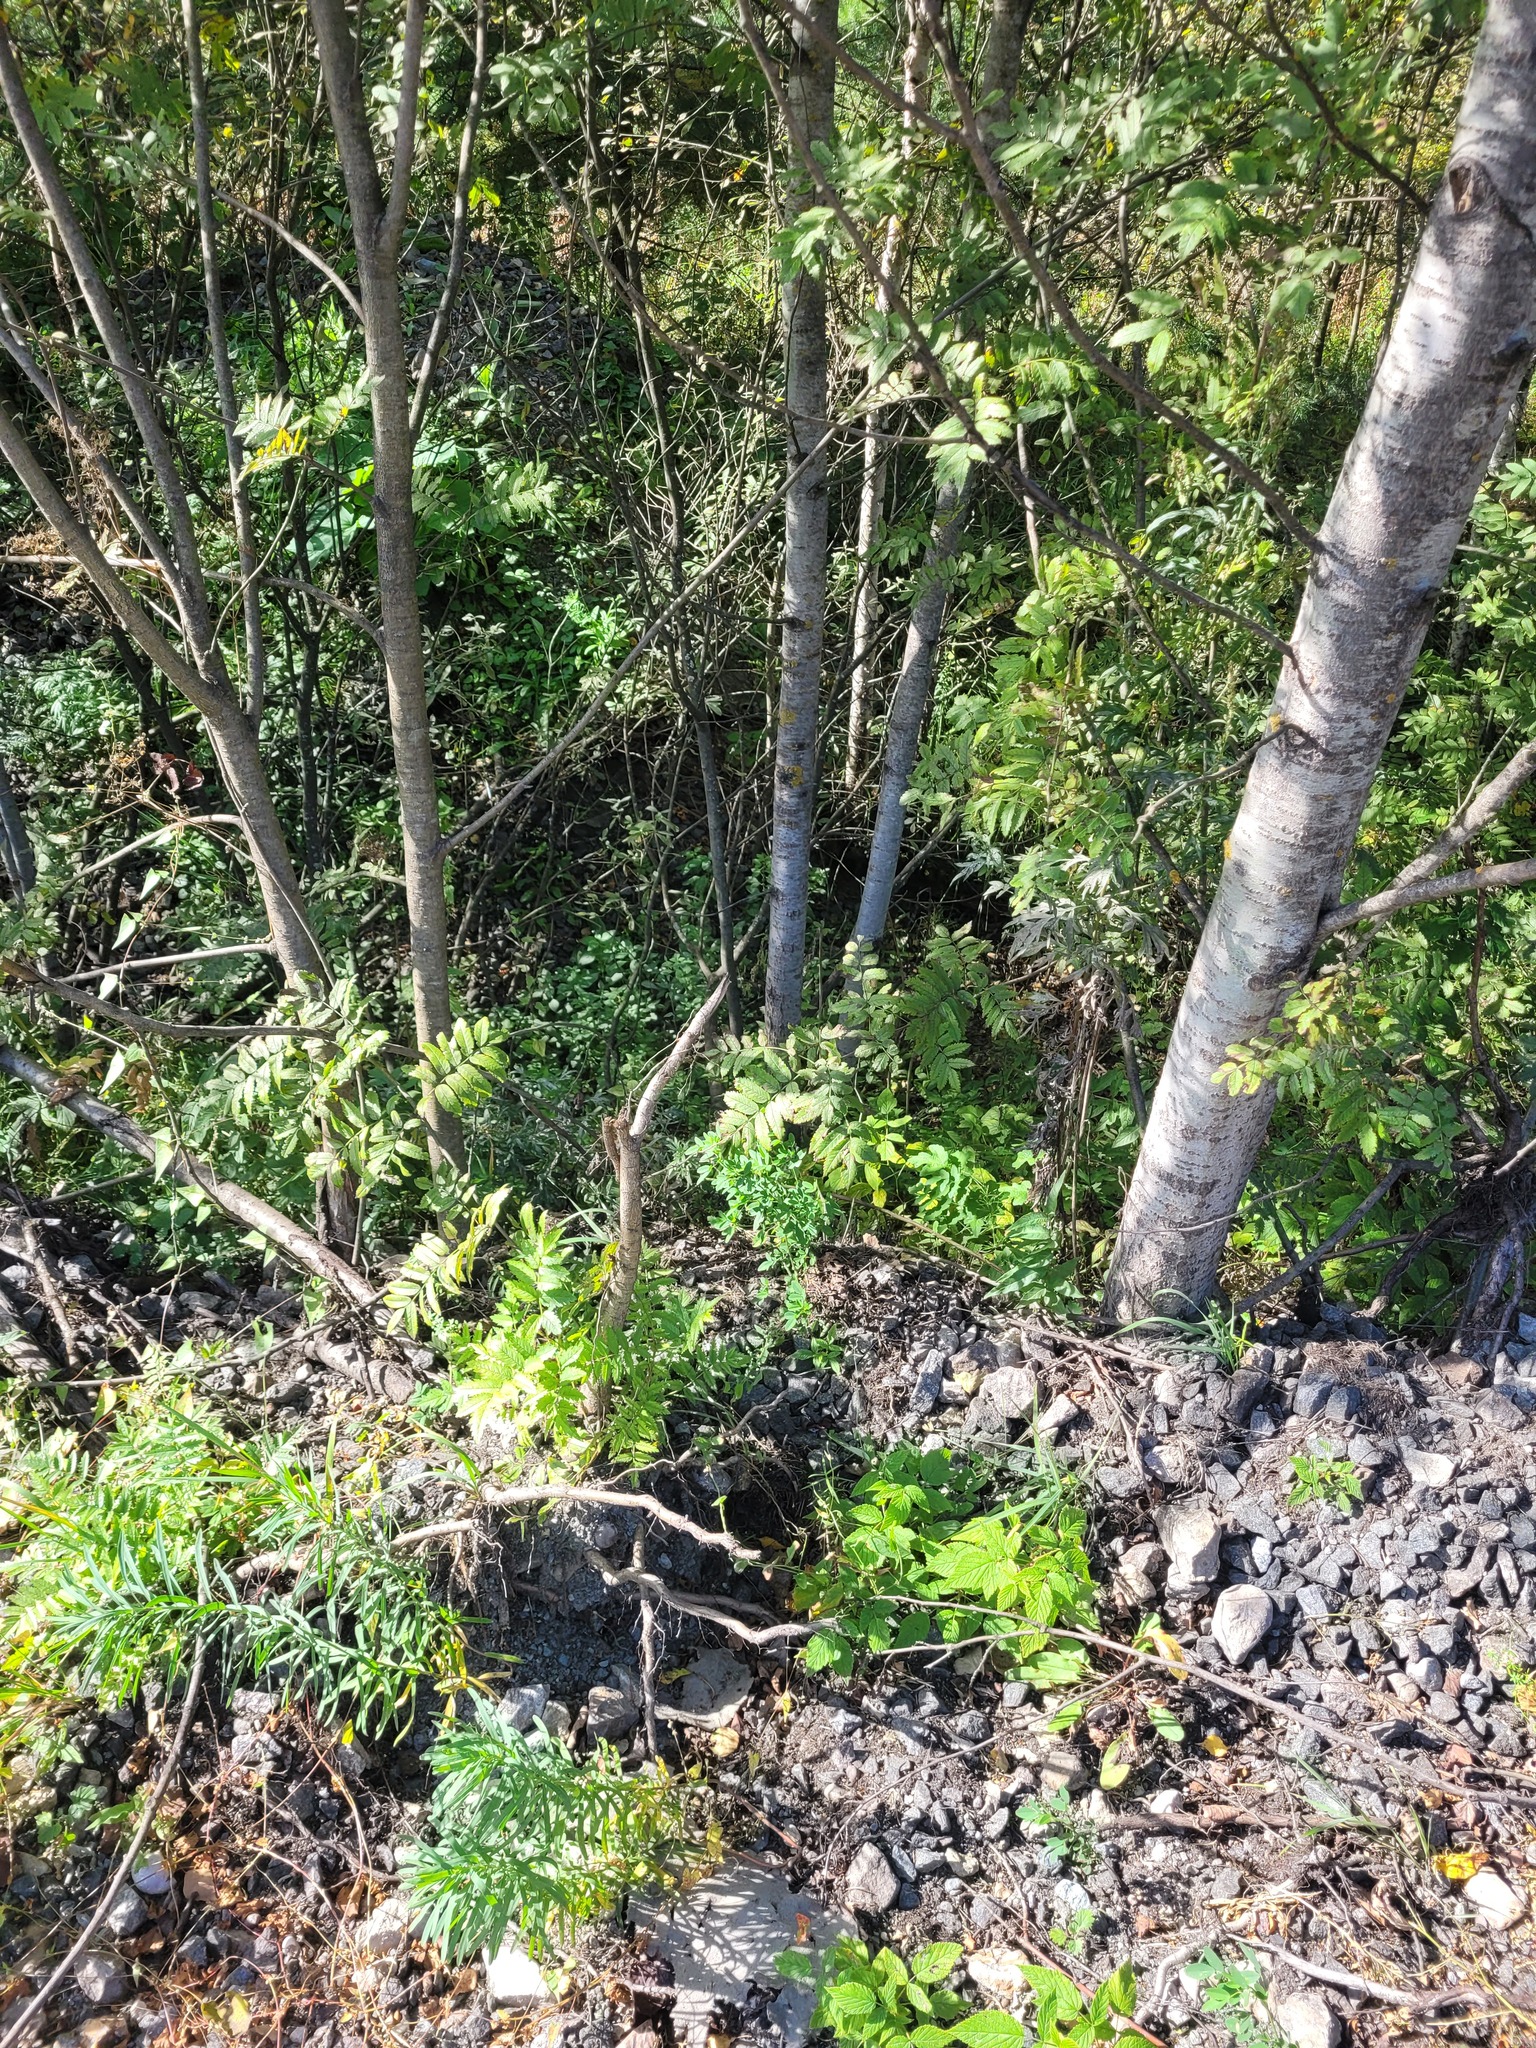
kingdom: Plantae
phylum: Tracheophyta
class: Magnoliopsida
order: Rosales
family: Rosaceae
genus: Sorbus
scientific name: Sorbus aucuparia
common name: Rowan
